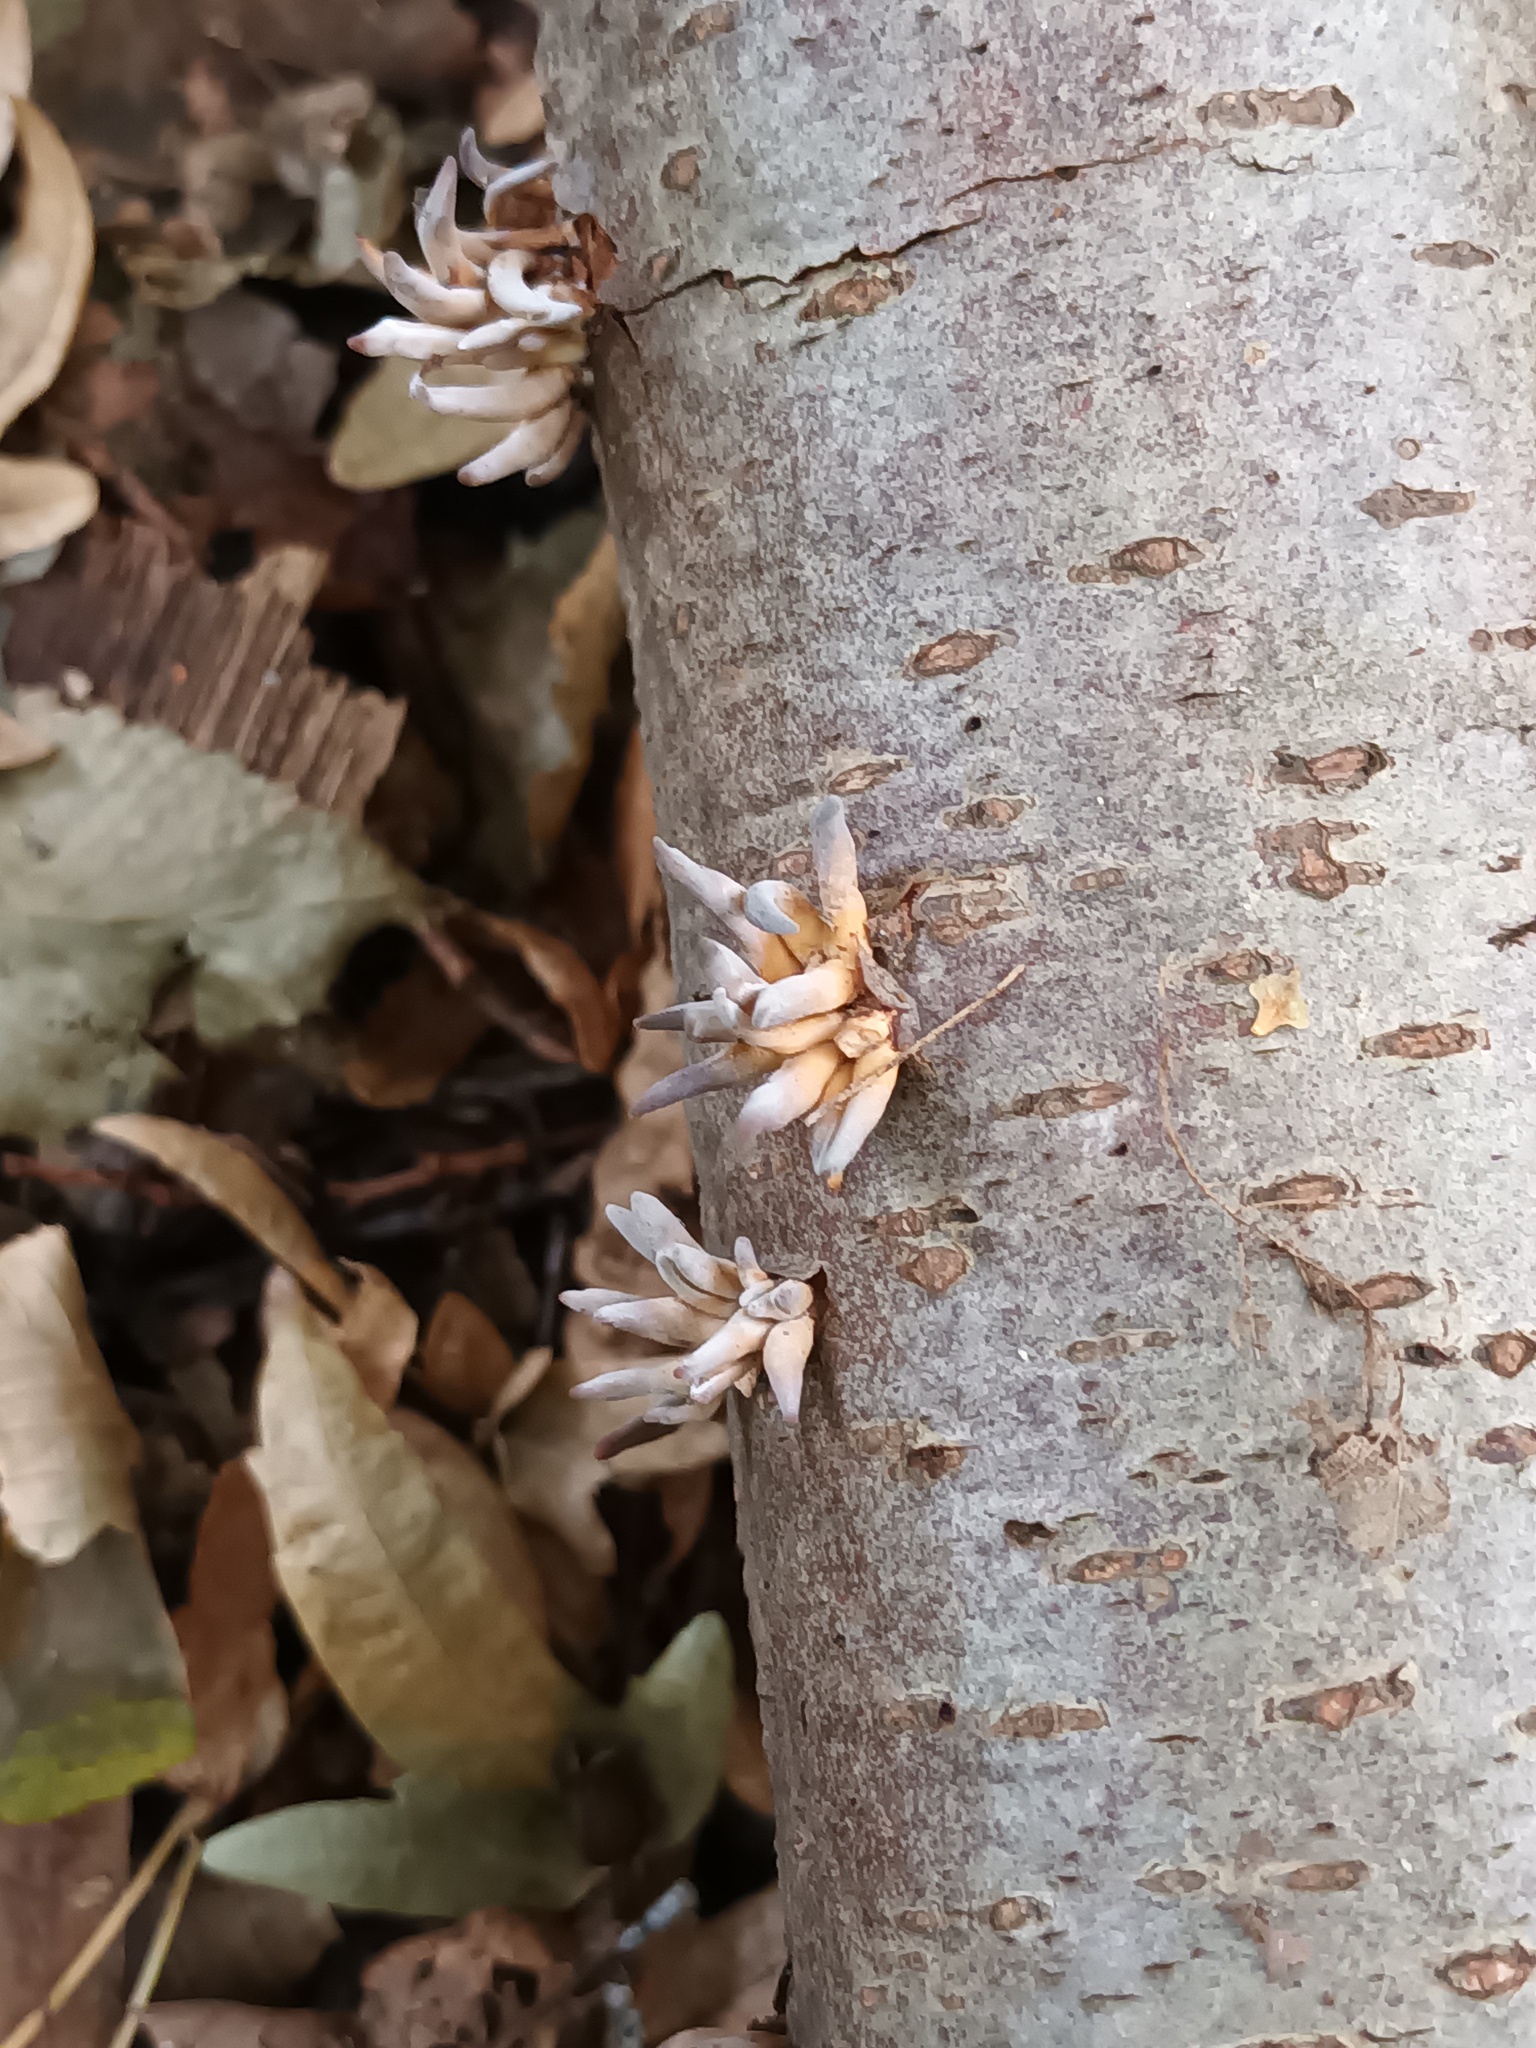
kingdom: Fungi
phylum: Basidiomycota
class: Agaricomycetes
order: Agaricales
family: Typhulaceae
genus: Typhula
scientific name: Typhula contorta
